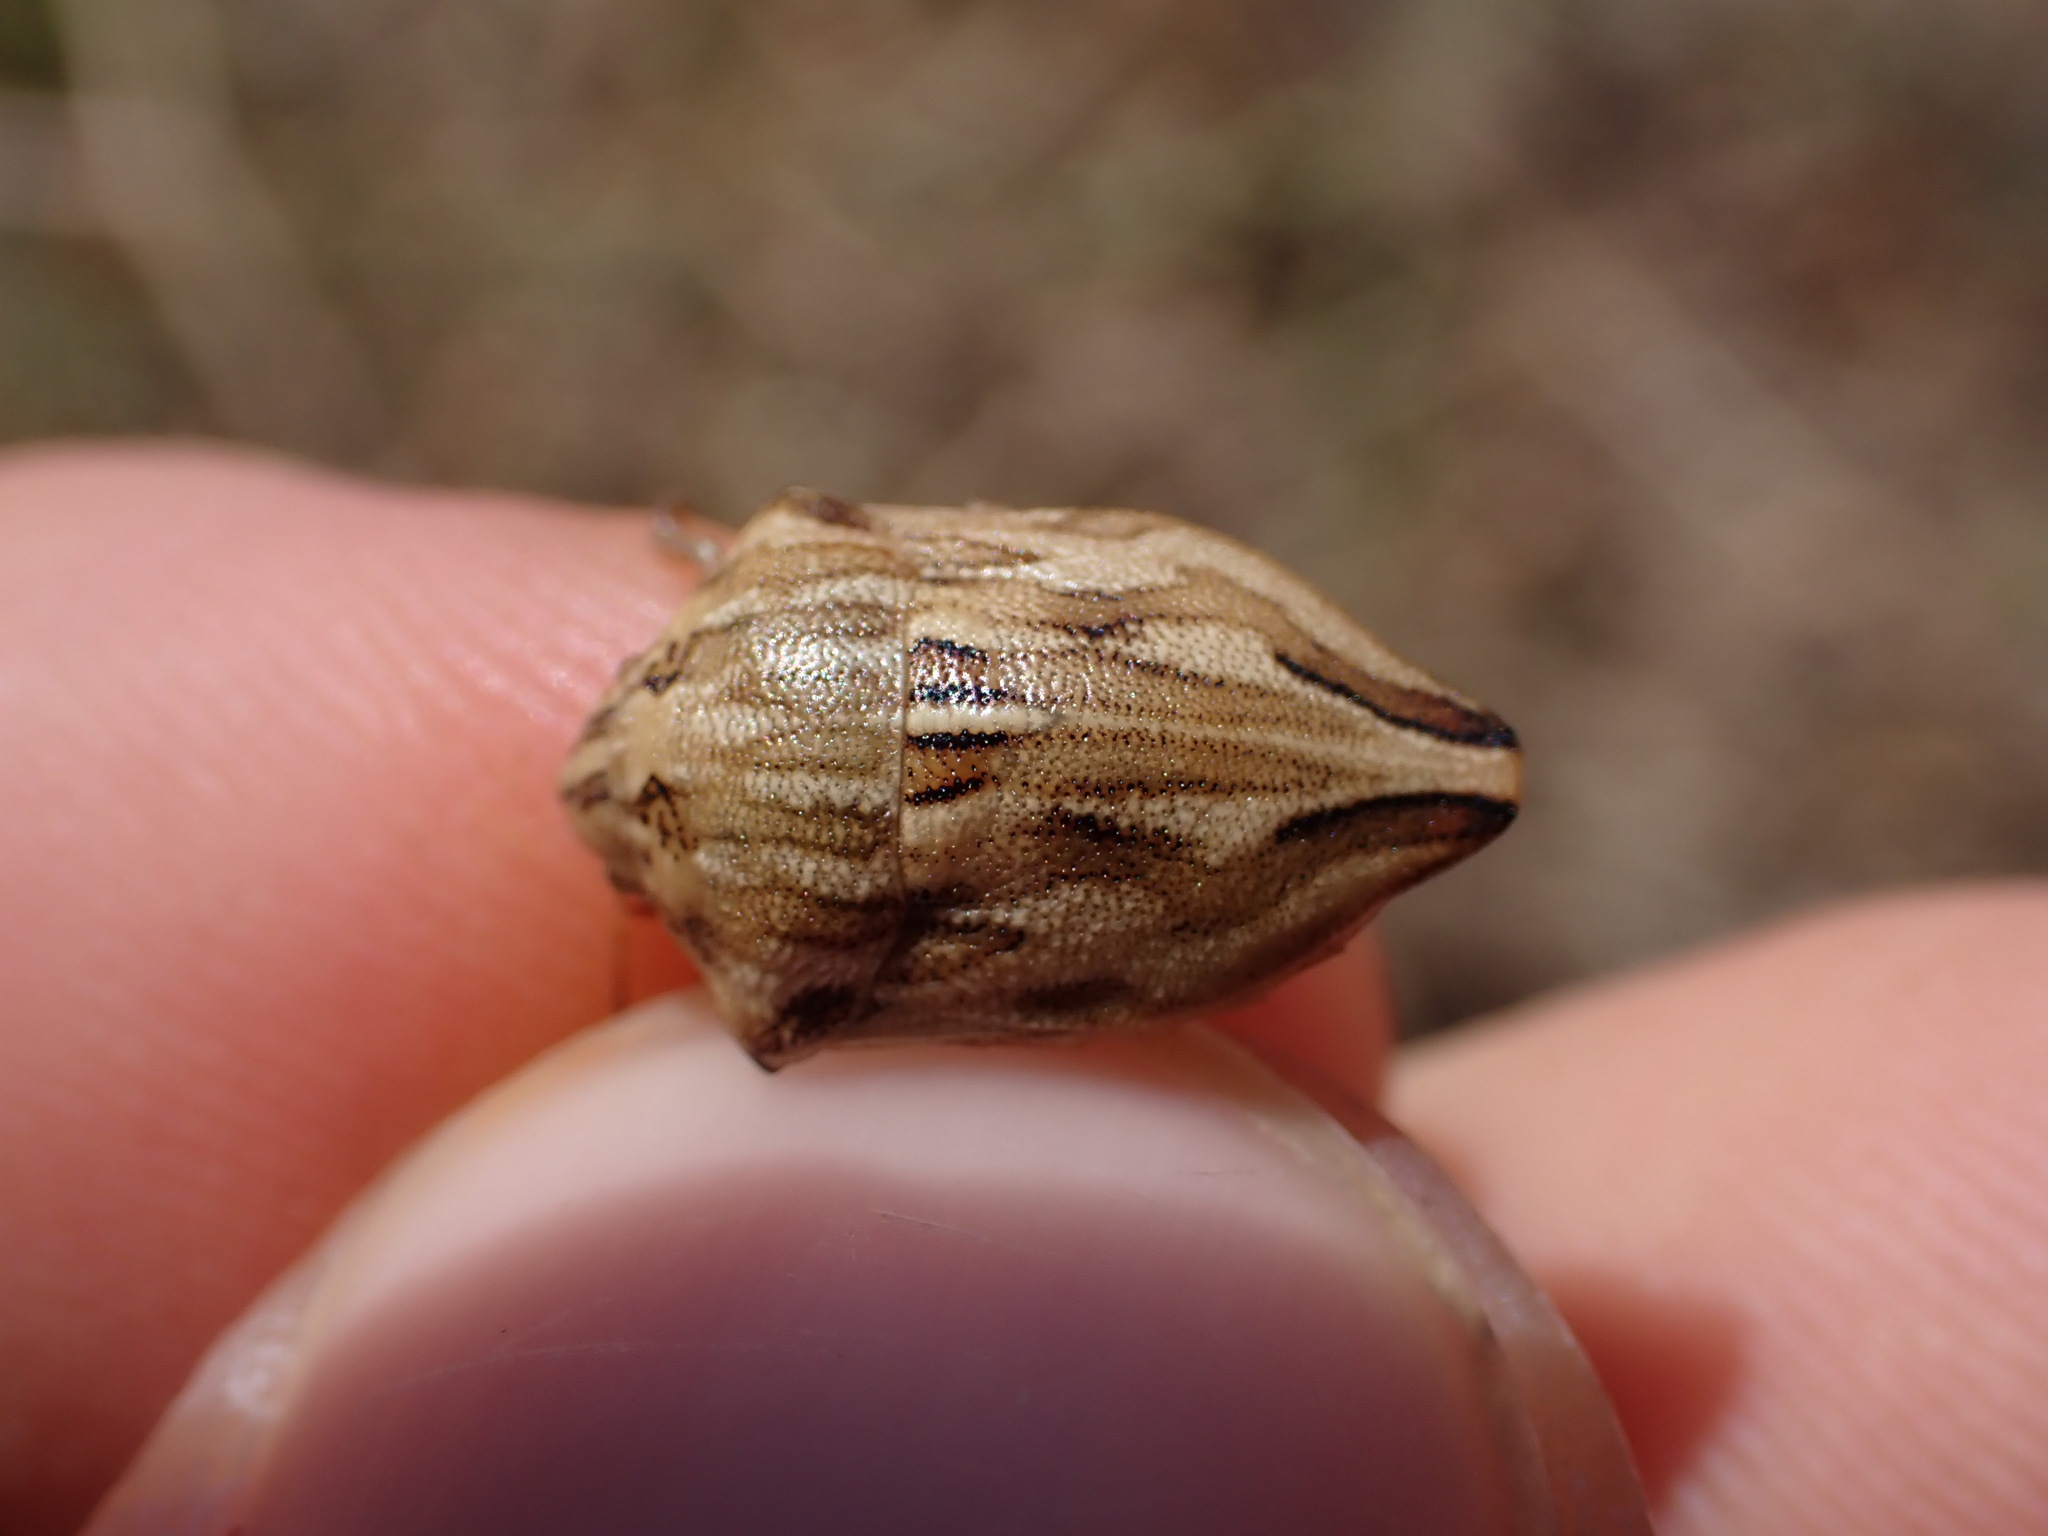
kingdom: Animalia
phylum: Arthropoda
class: Insecta
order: Hemiptera
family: Scutelleridae
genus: Odontotarsus
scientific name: Odontotarsus robustus
